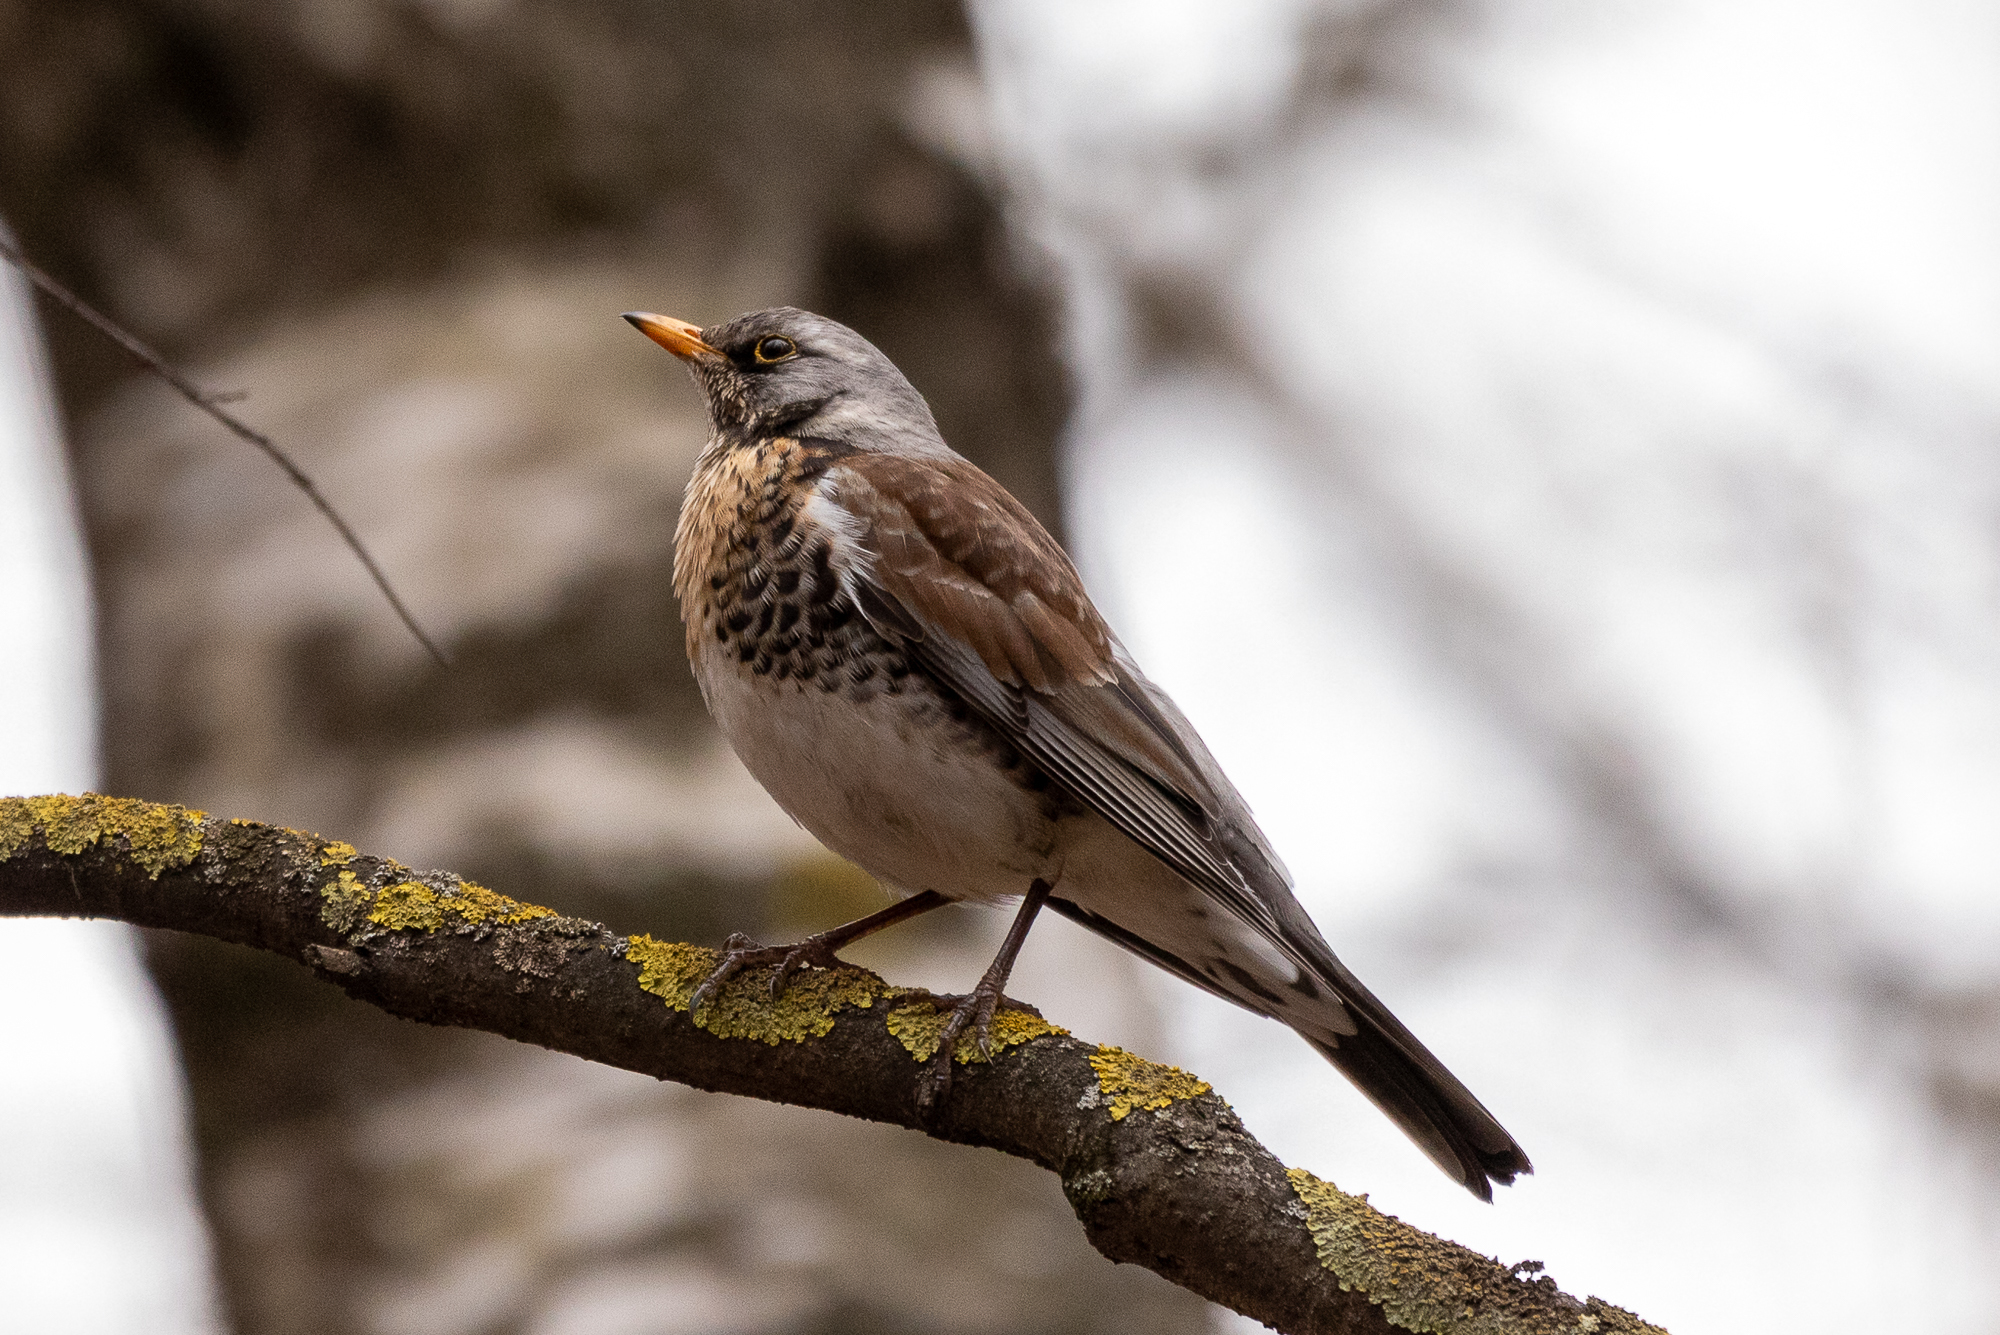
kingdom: Animalia
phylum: Chordata
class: Aves
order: Passeriformes
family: Turdidae
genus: Turdus
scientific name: Turdus pilaris
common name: Fieldfare
